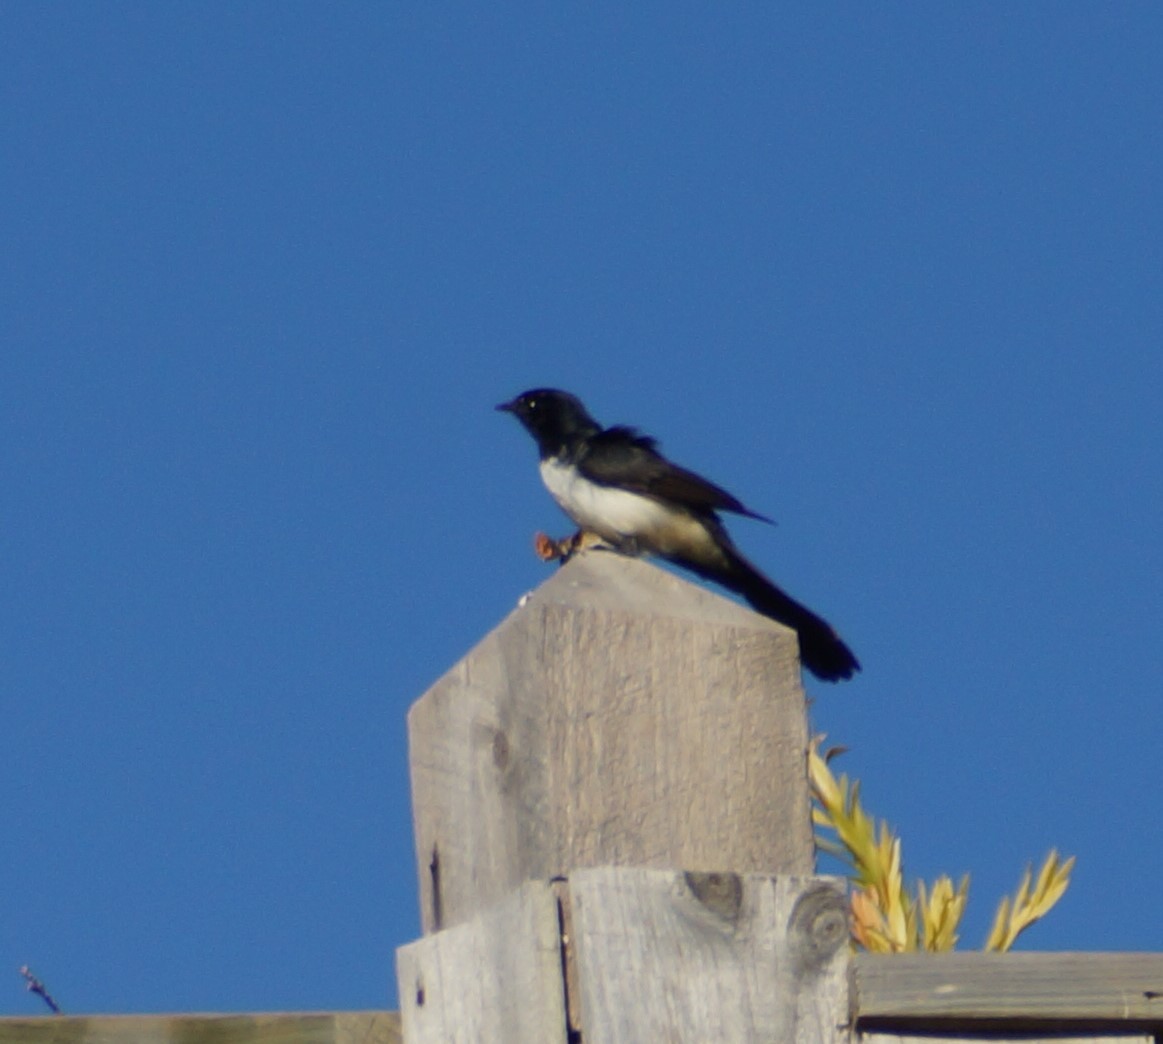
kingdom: Animalia
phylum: Chordata
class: Aves
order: Passeriformes
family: Rhipiduridae
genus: Rhipidura
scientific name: Rhipidura leucophrys
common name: Willie wagtail
